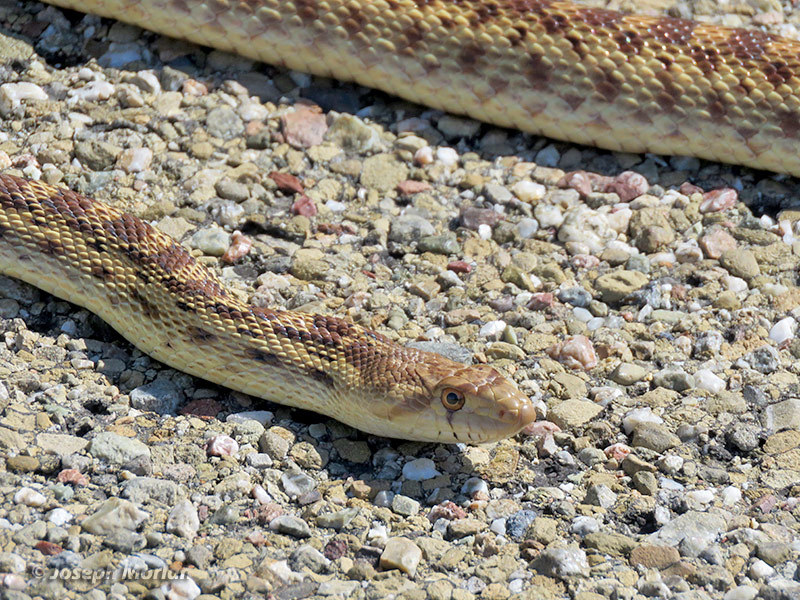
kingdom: Animalia
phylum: Chordata
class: Squamata
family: Colubridae
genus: Pituophis
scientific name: Pituophis catenifer
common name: Gopher snake
